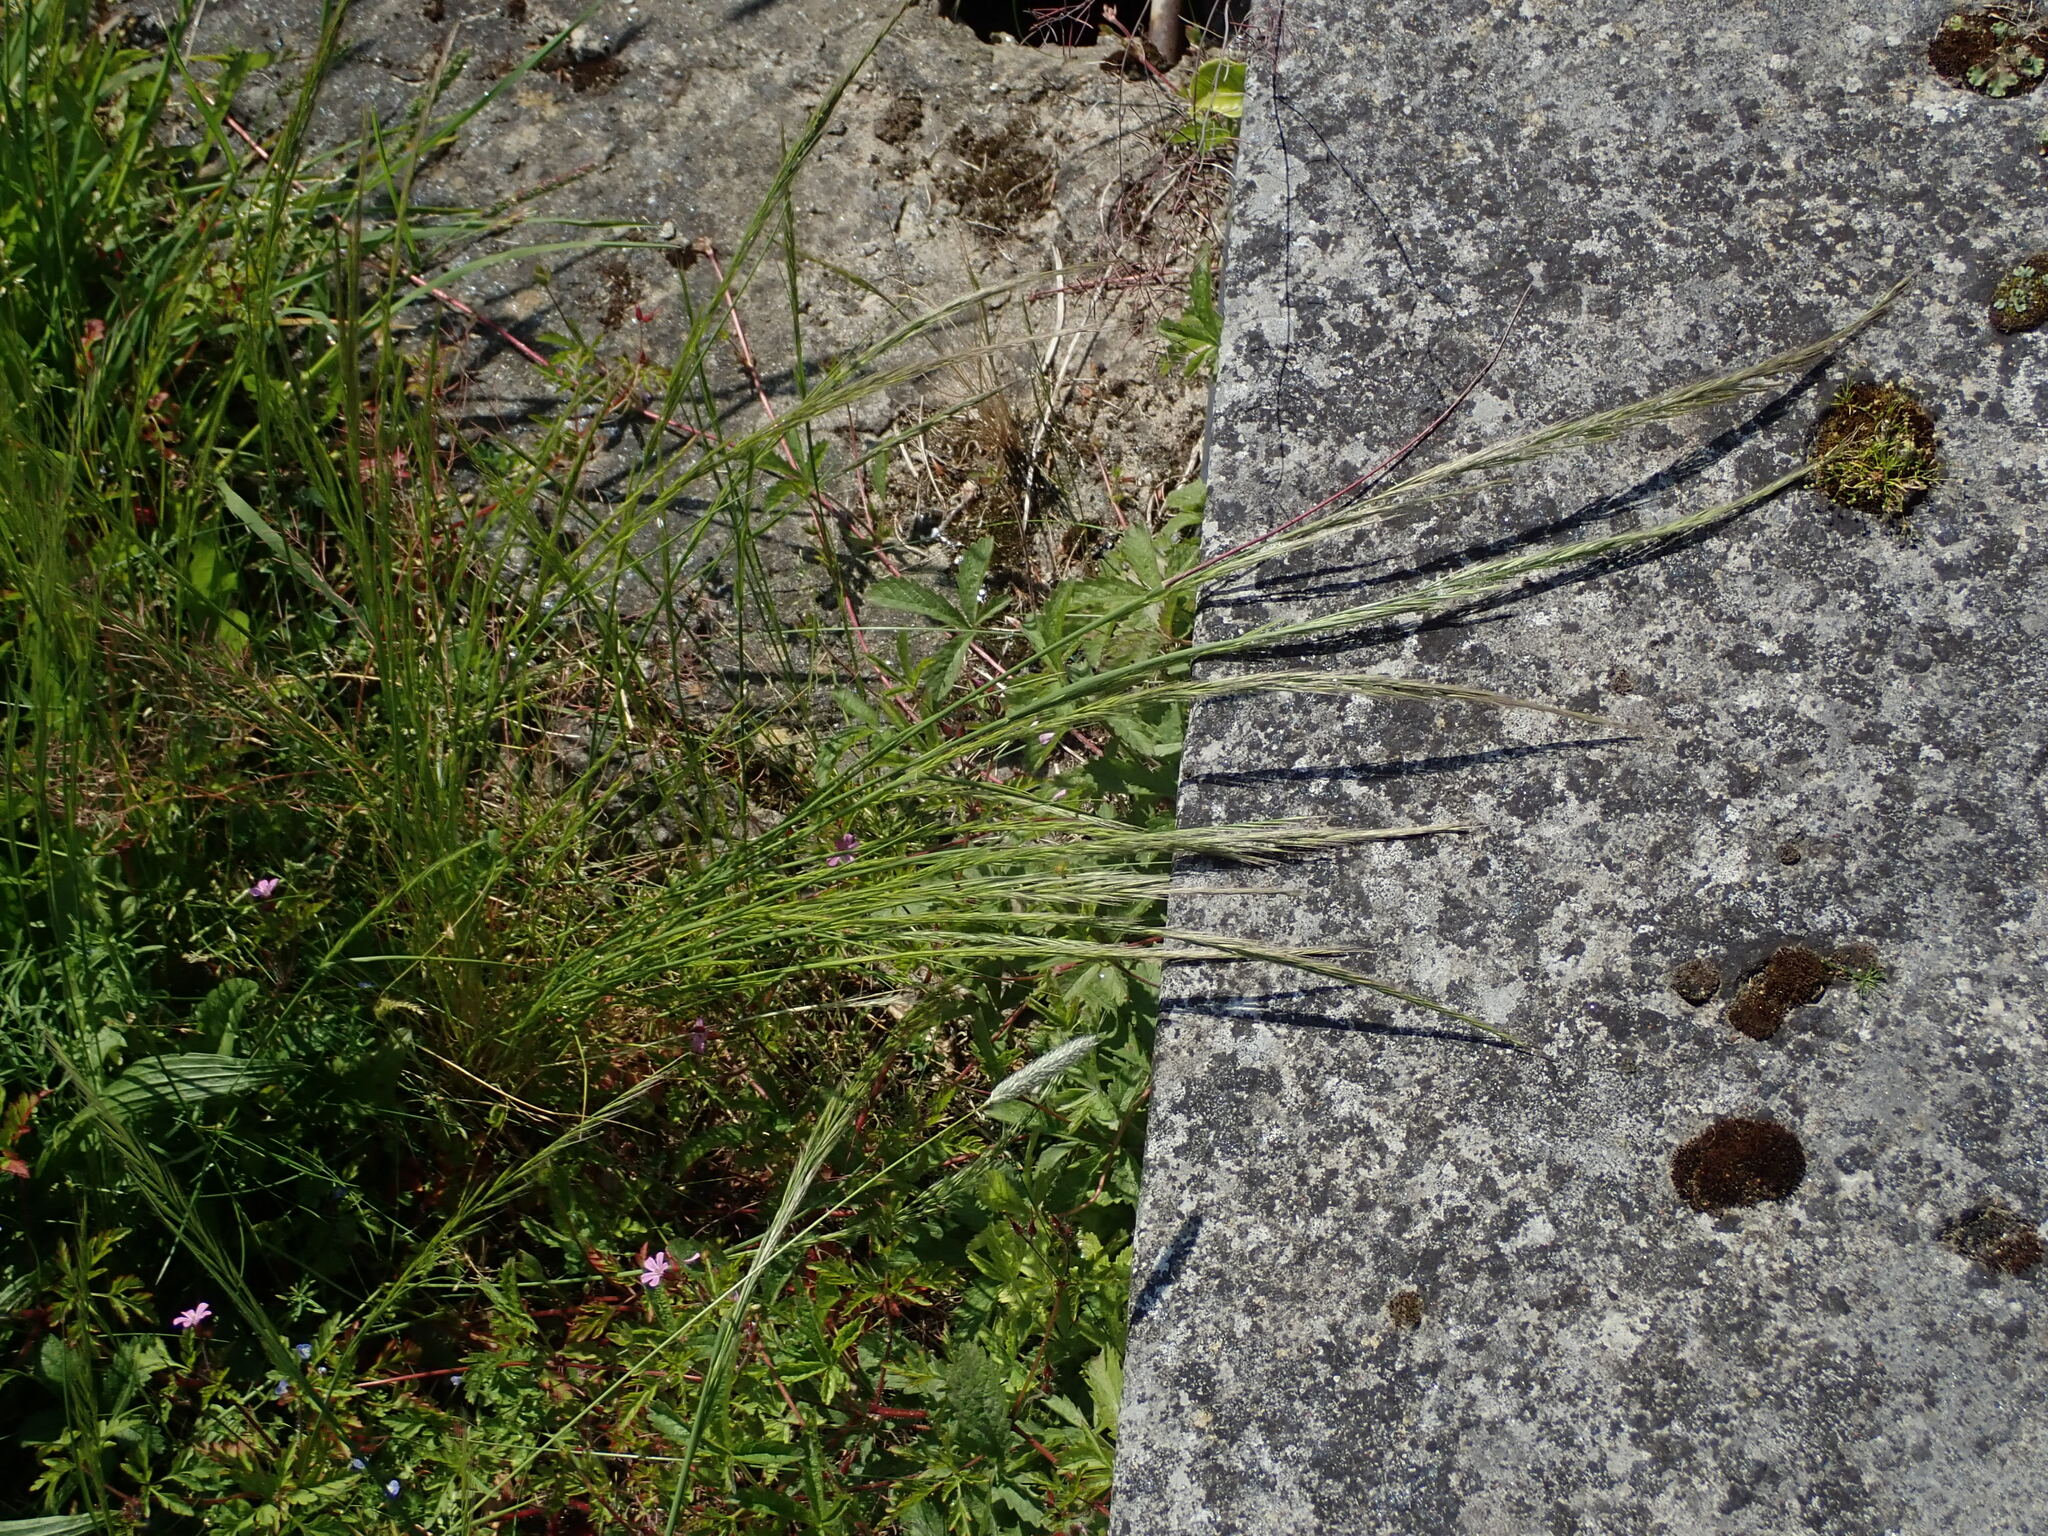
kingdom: Plantae
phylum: Tracheophyta
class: Liliopsida
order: Poales
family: Poaceae
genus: Festuca
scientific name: Festuca myuros
